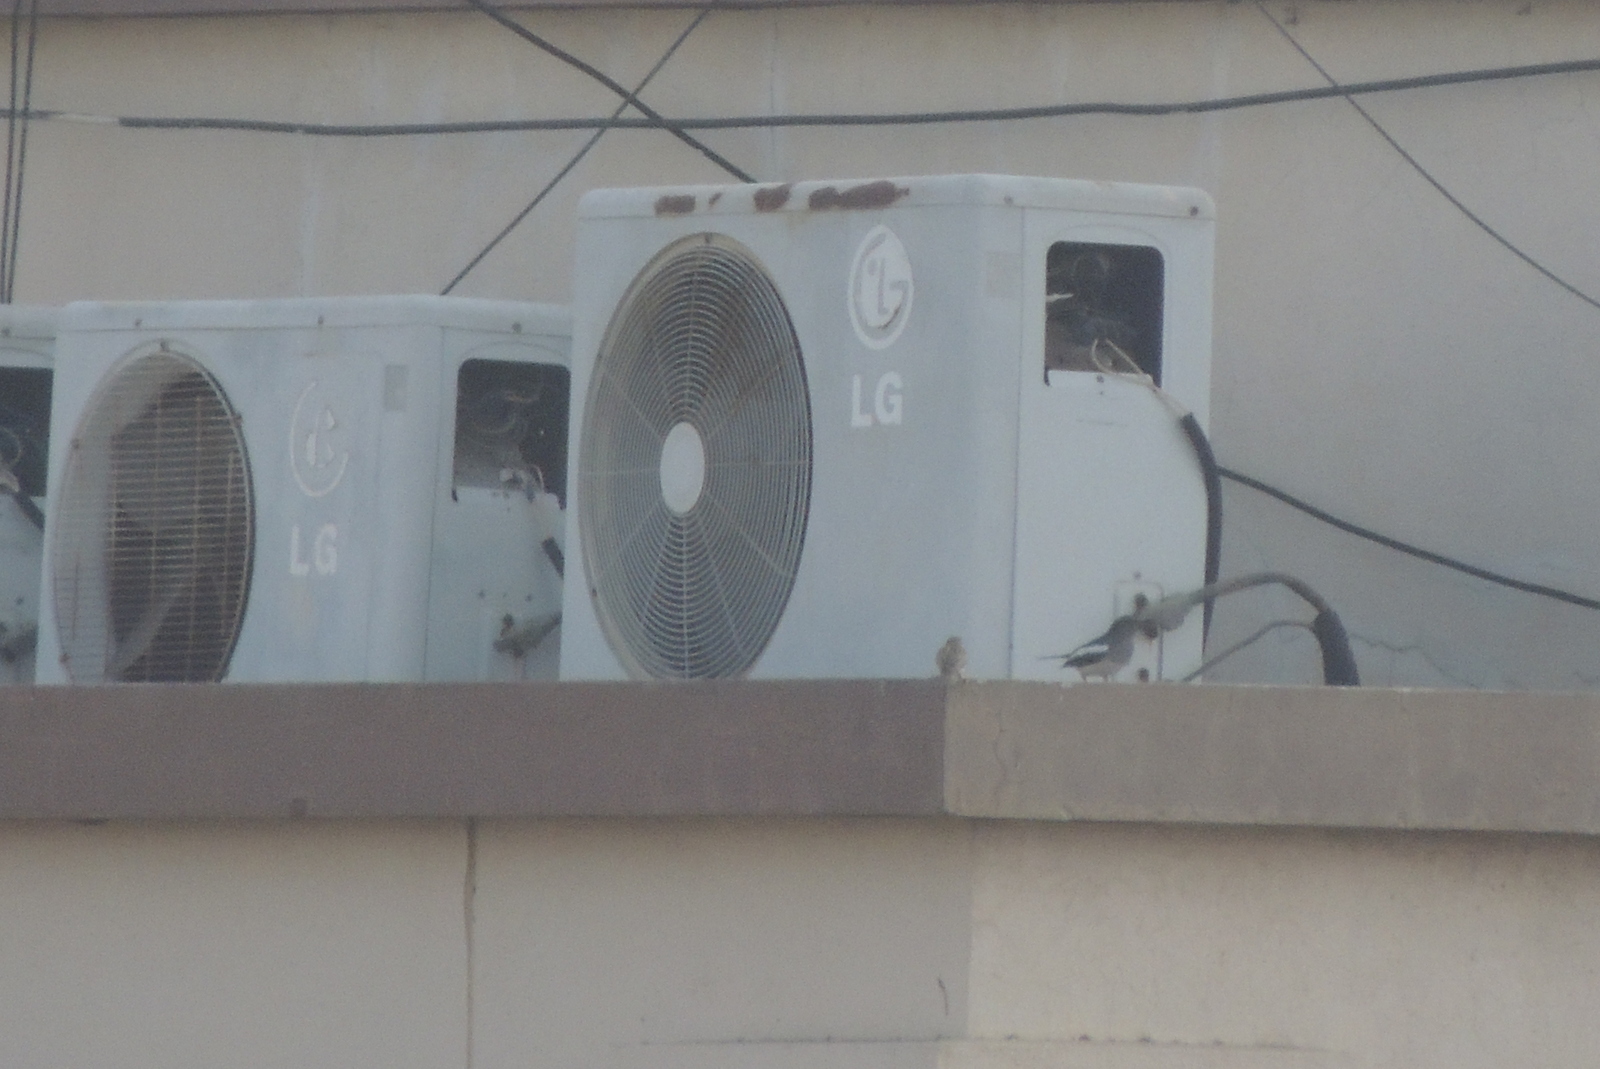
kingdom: Animalia
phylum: Chordata
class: Aves
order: Passeriformes
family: Passeridae
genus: Passer
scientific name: Passer domesticus
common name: House sparrow
